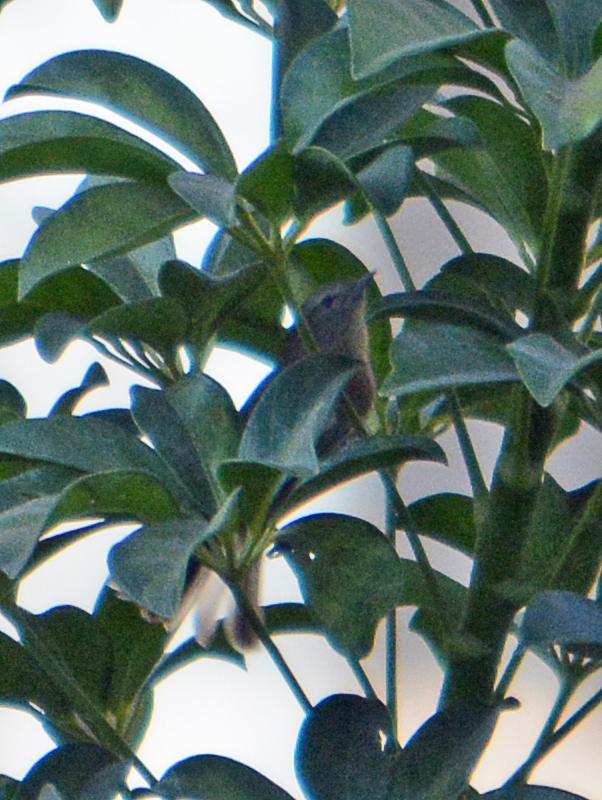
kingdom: Animalia
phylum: Chordata
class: Aves
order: Passeriformes
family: Parulidae
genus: Leiothlypis
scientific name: Leiothlypis celata
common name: Orange-crowned warbler
